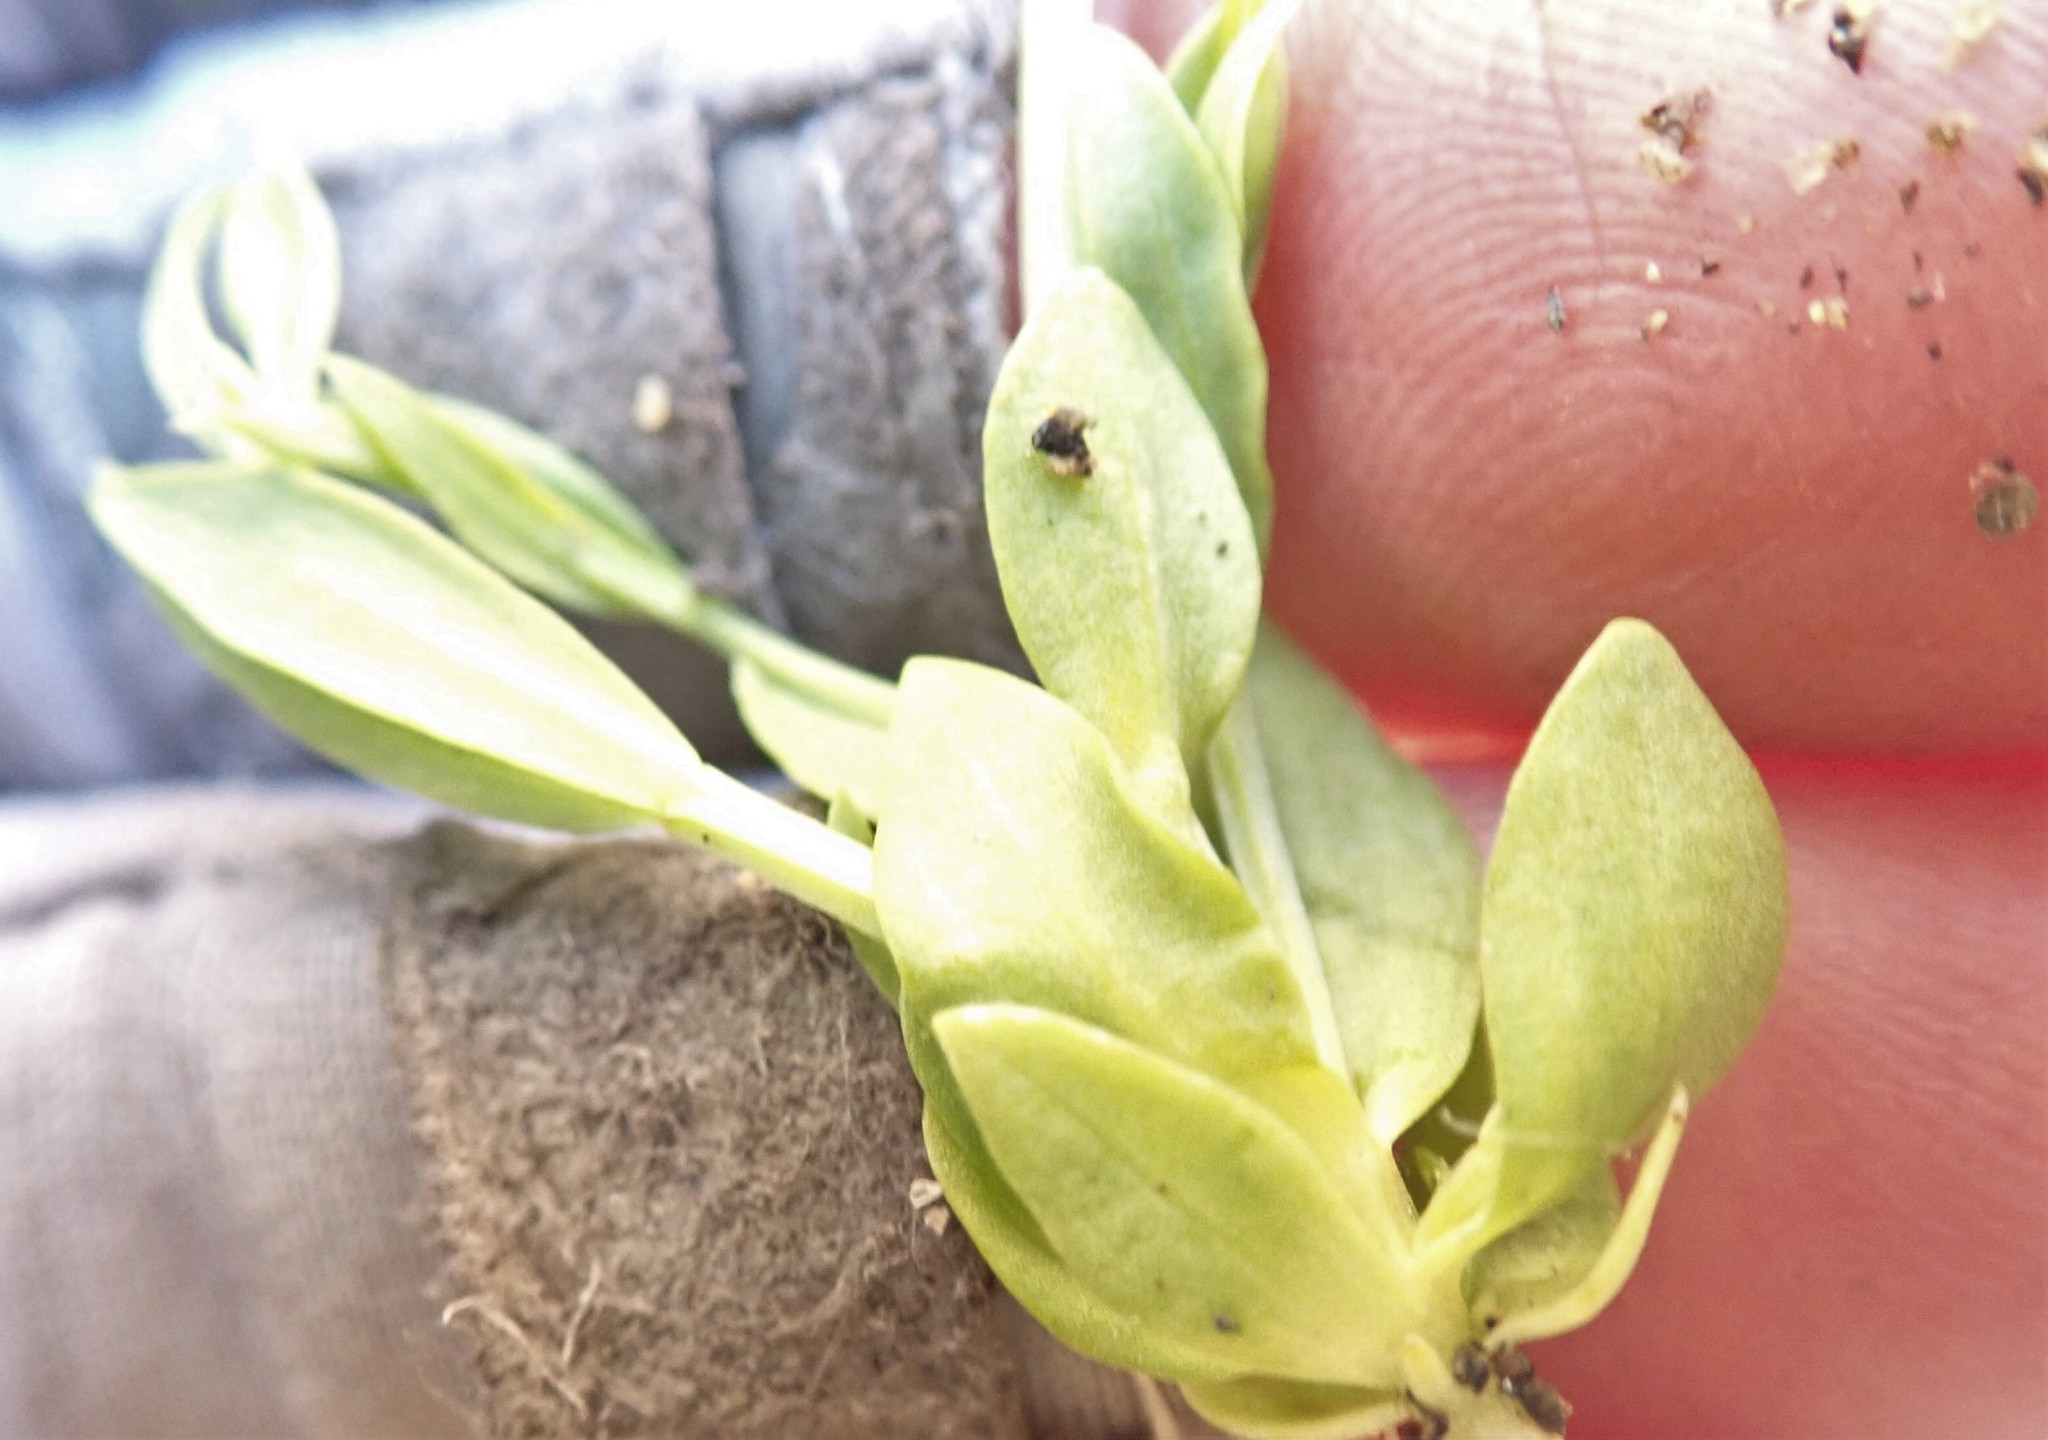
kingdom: Plantae
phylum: Tracheophyta
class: Magnoliopsida
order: Gentianales
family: Gentianaceae
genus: Zeltnera
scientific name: Zeltnera exaltata
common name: Great basin centaury
